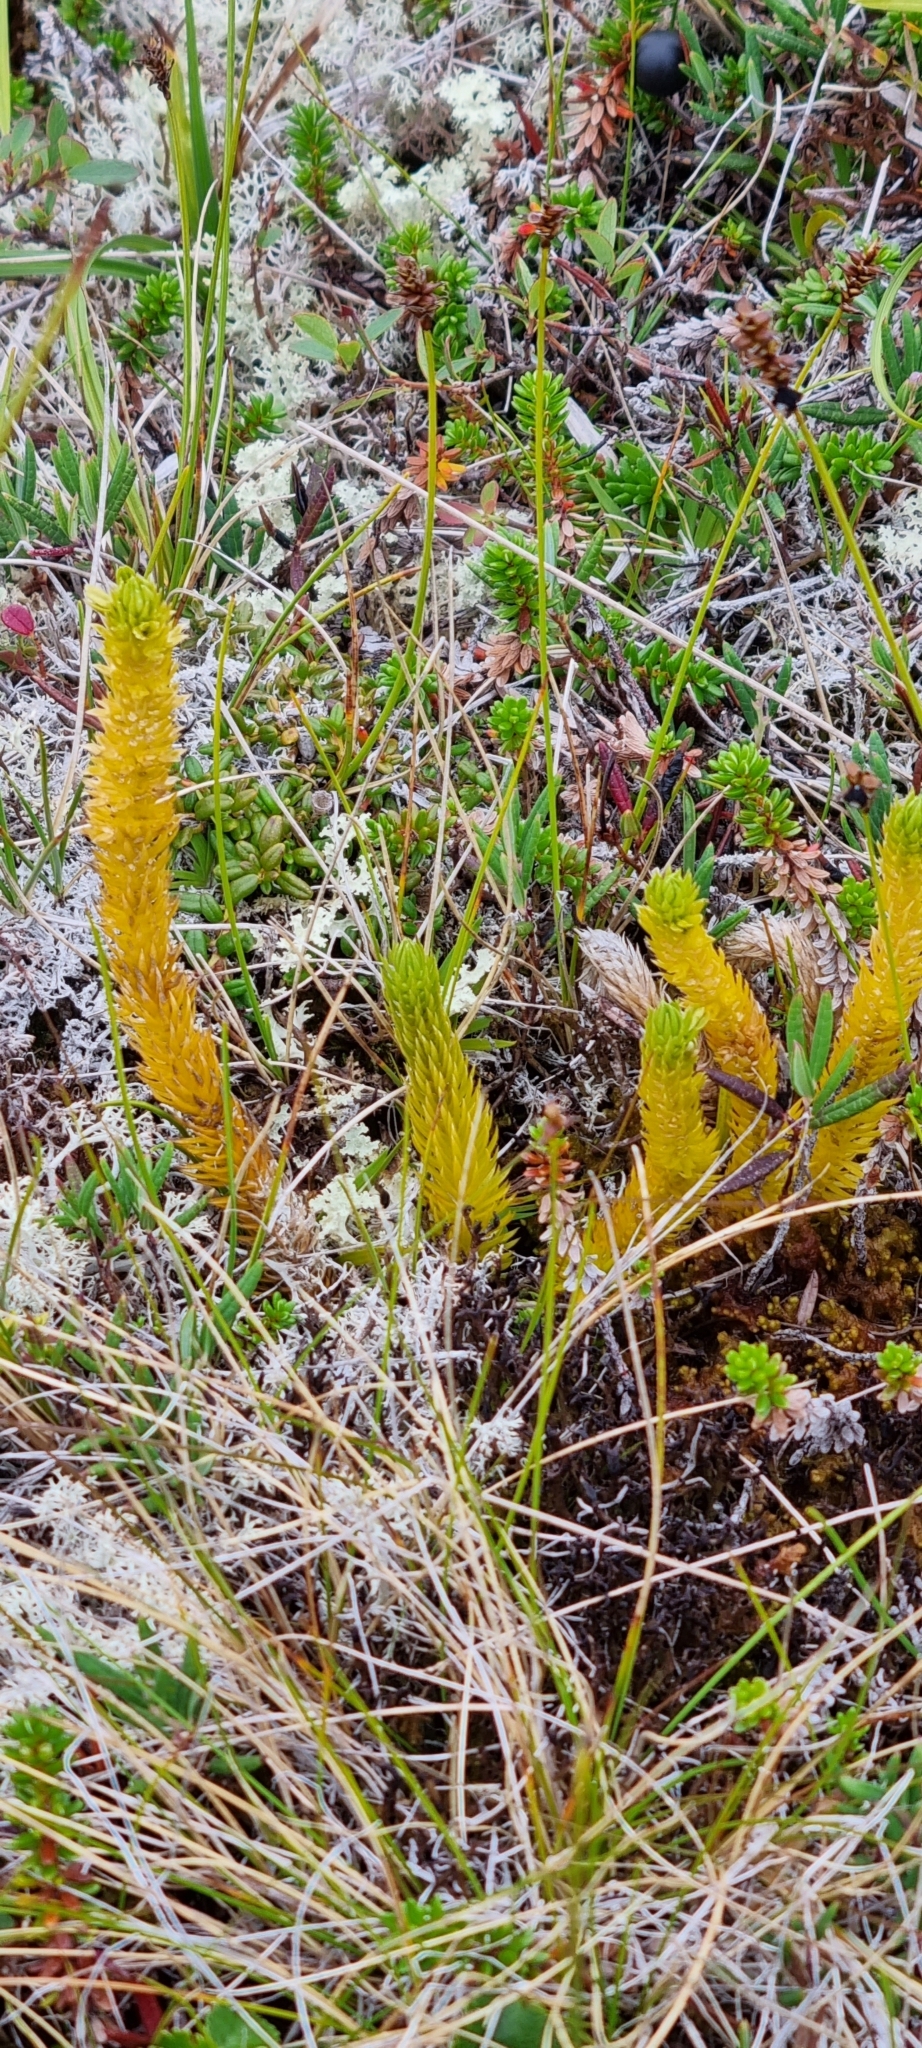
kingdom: Plantae
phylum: Tracheophyta
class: Lycopodiopsida
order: Lycopodiales
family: Lycopodiaceae
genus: Huperzia
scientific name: Huperzia selago
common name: Northern firmoss
